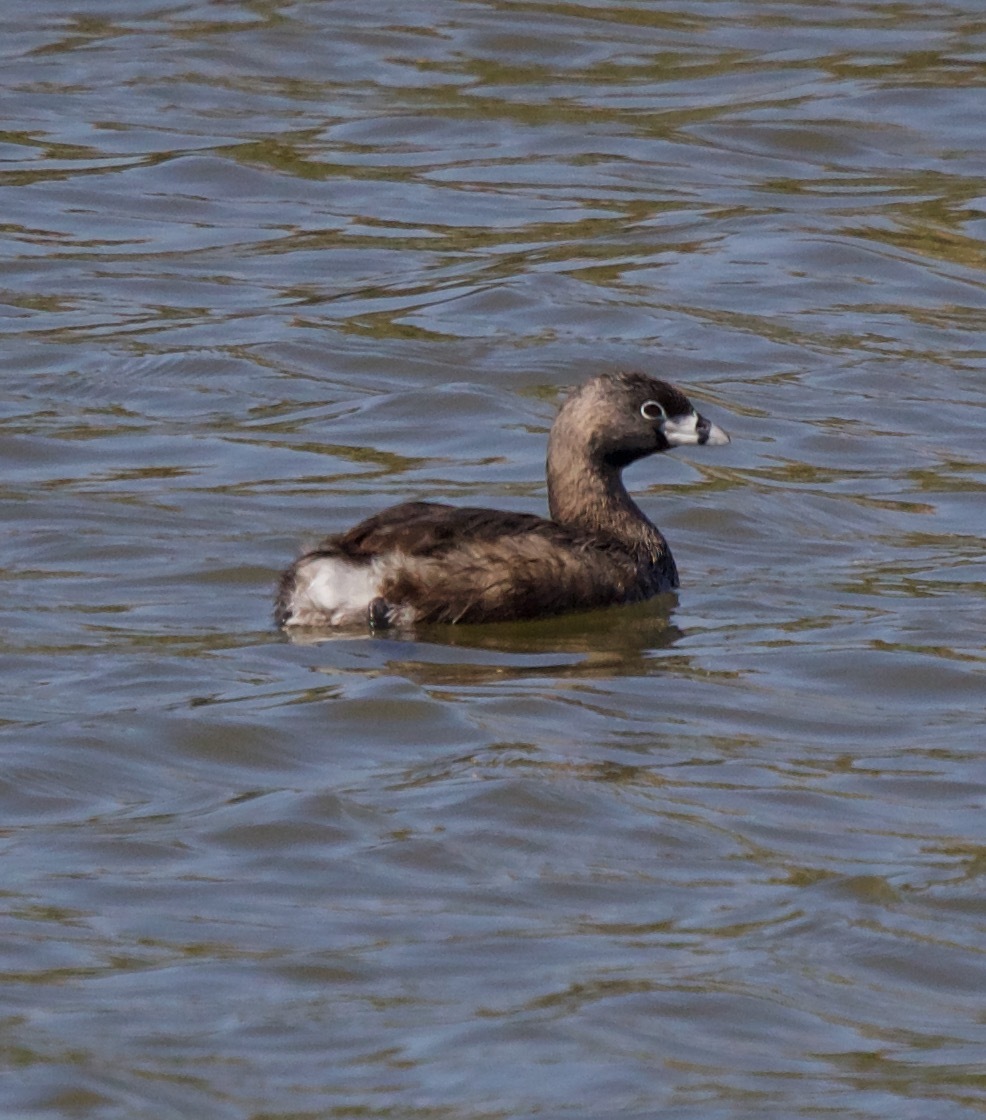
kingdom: Animalia
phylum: Chordata
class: Aves
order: Podicipediformes
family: Podicipedidae
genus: Podilymbus
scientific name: Podilymbus podiceps
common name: Pied-billed grebe
